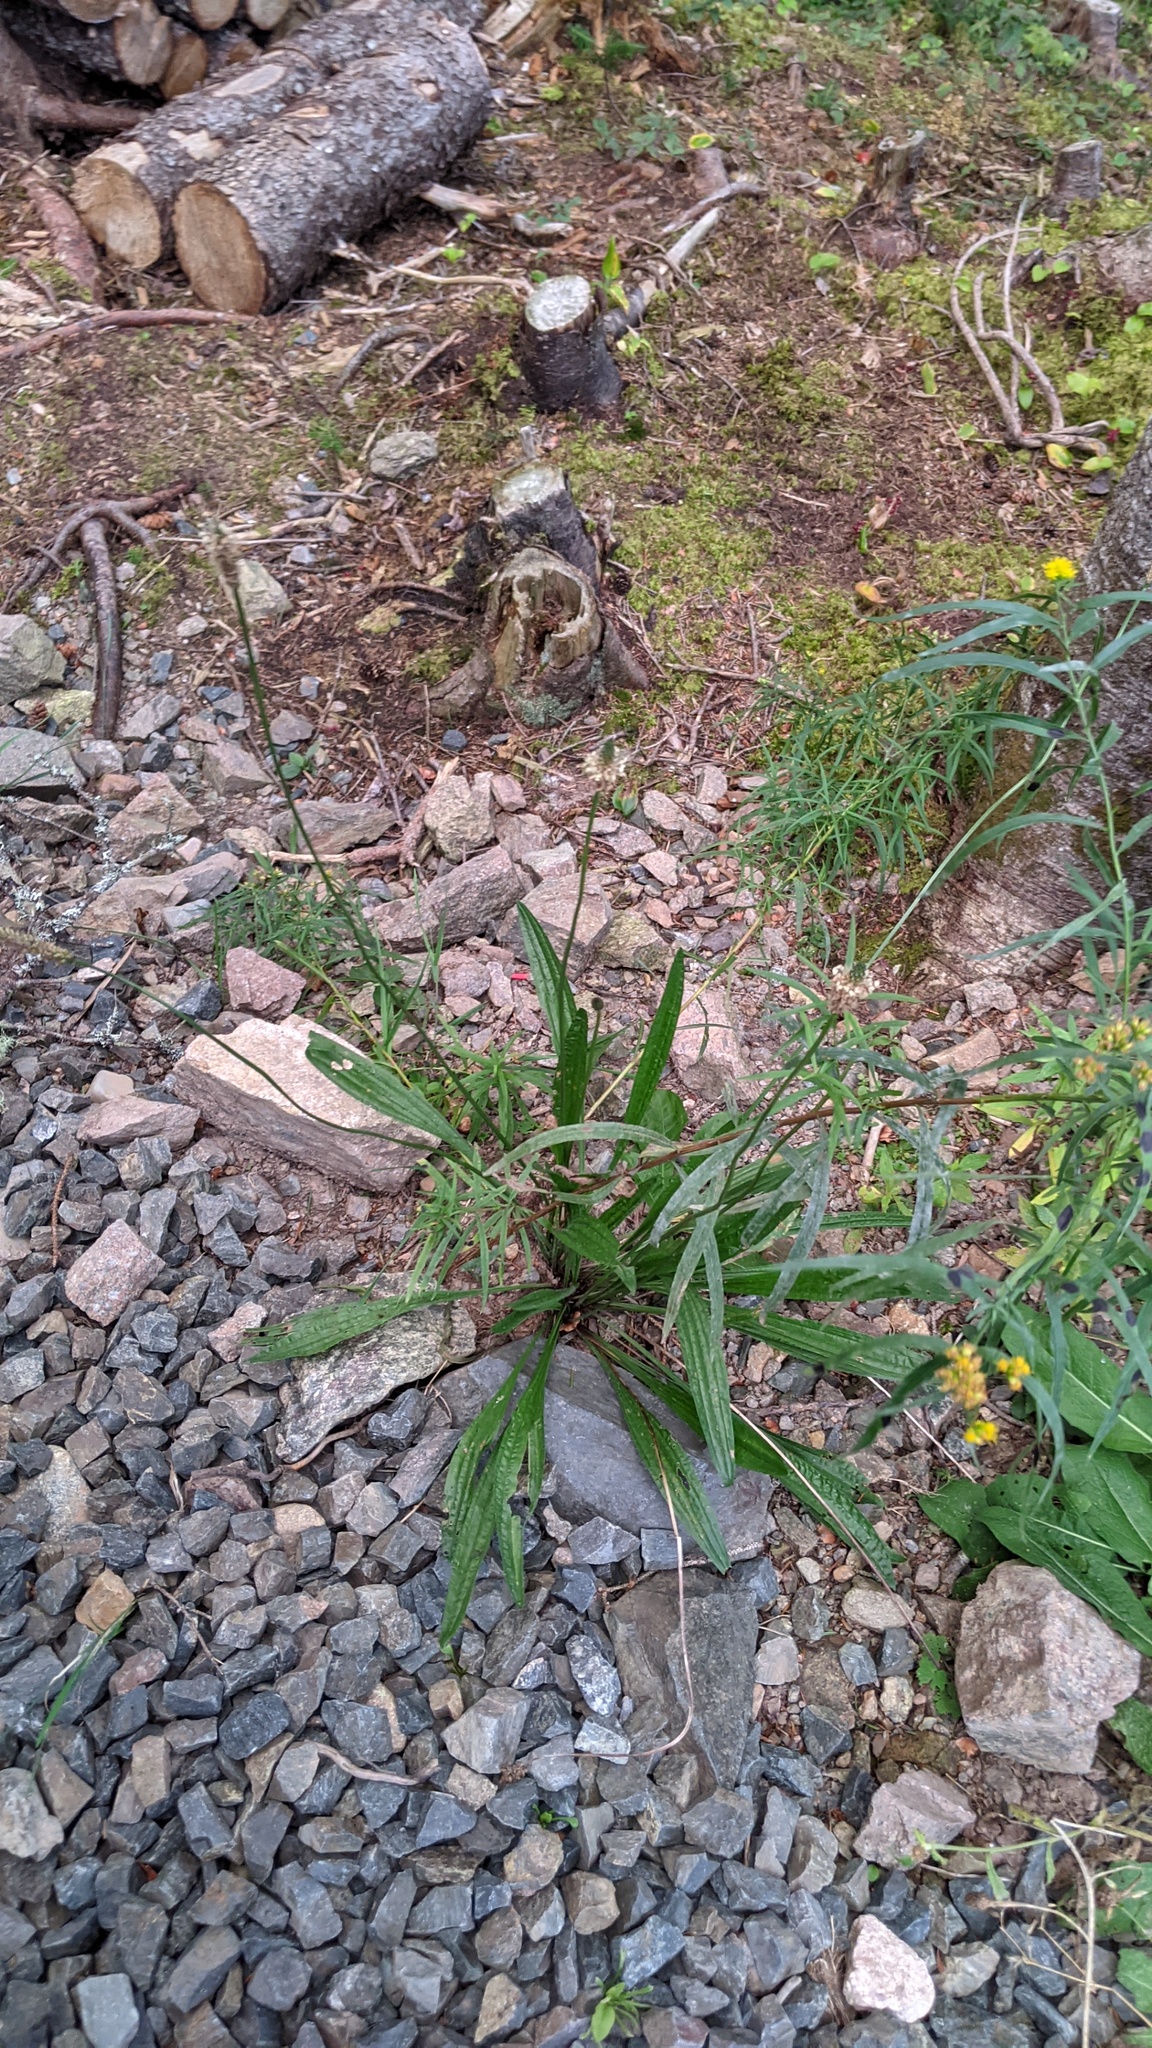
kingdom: Plantae
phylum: Tracheophyta
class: Magnoliopsida
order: Lamiales
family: Plantaginaceae
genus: Plantago
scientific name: Plantago lanceolata
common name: Ribwort plantain
